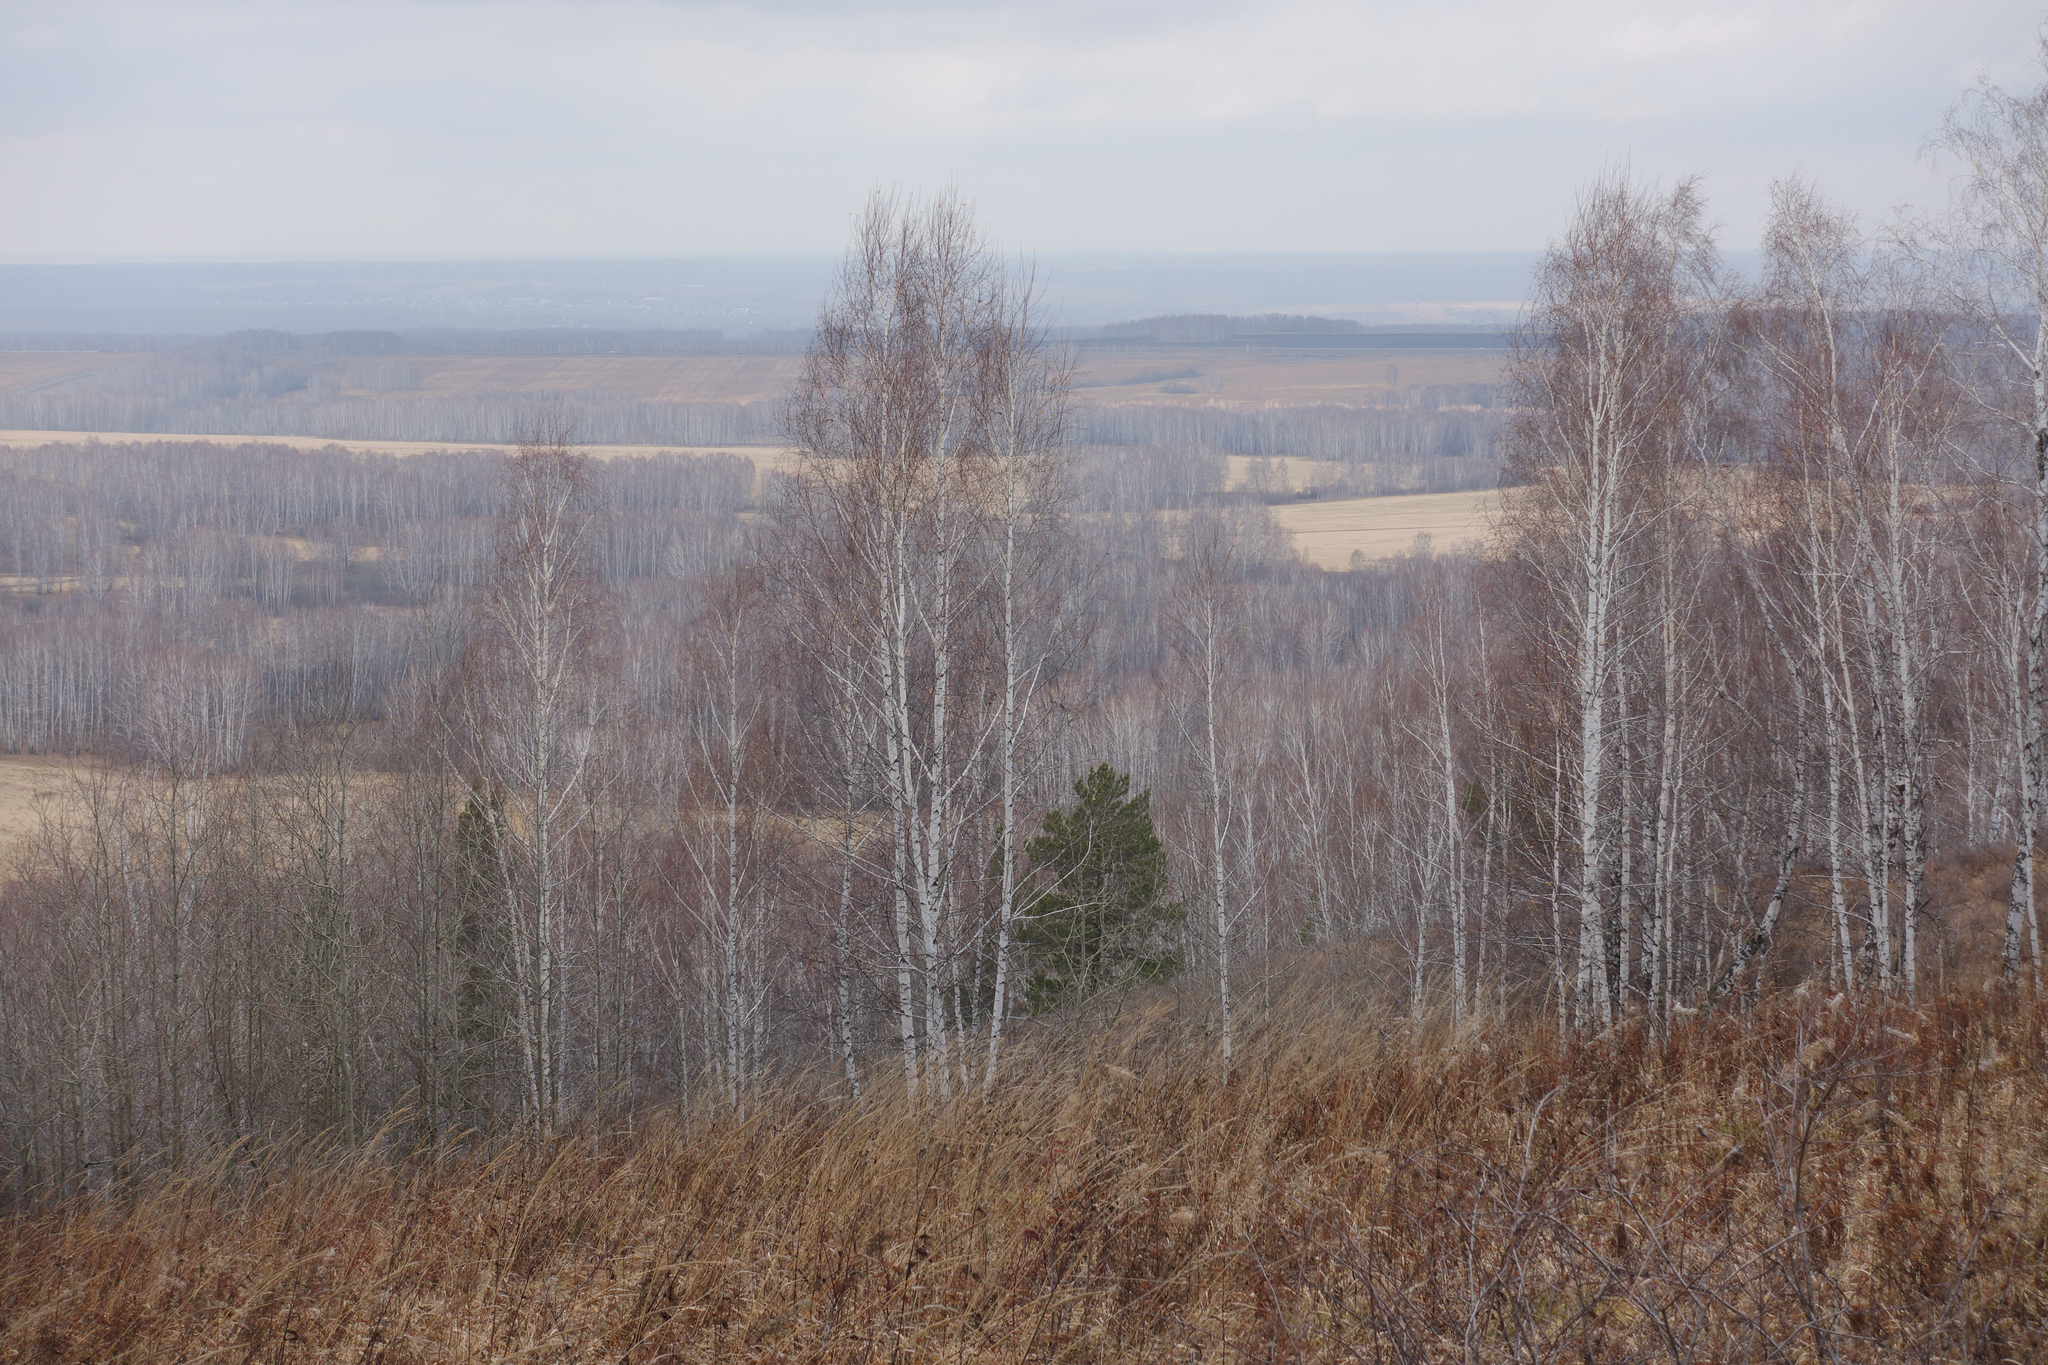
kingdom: Plantae
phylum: Tracheophyta
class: Pinopsida
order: Pinales
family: Pinaceae
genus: Pinus
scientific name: Pinus sylvestris
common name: Scots pine
